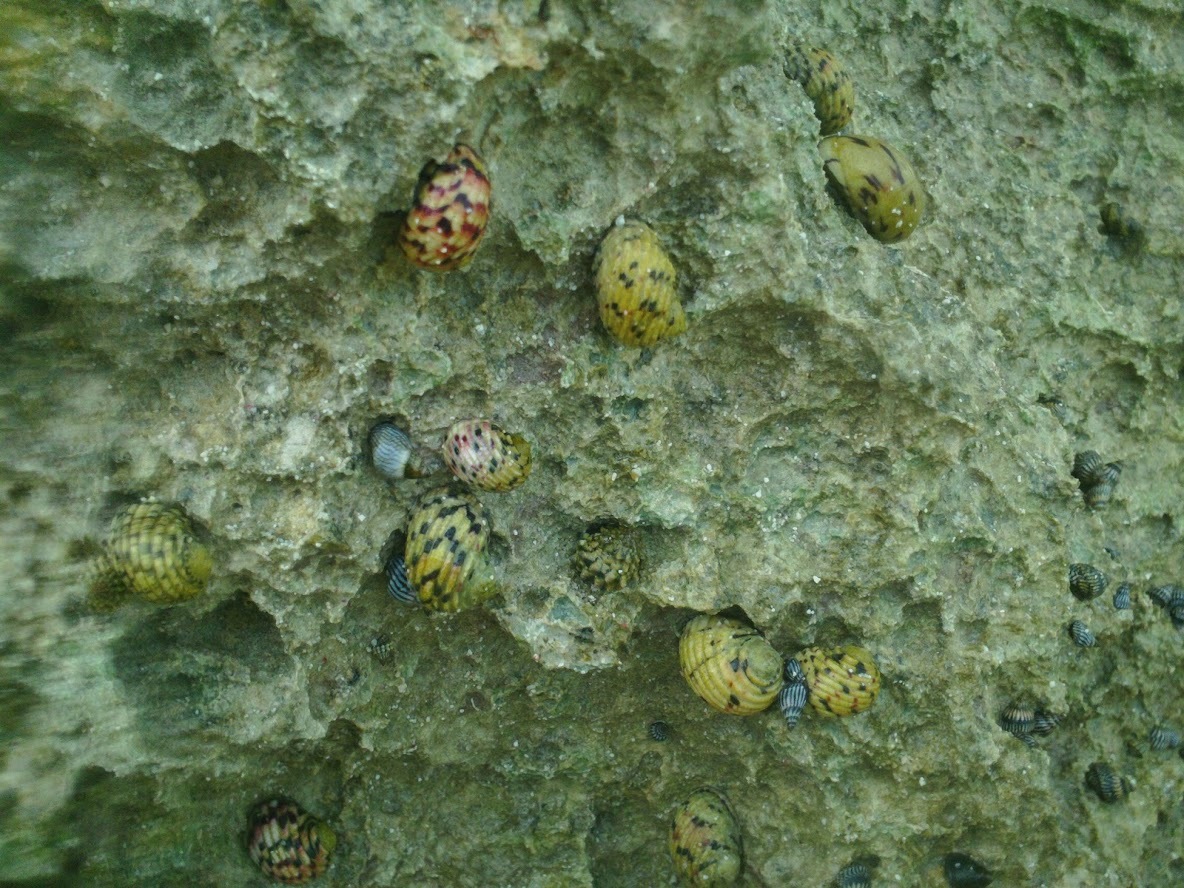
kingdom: Animalia
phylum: Mollusca
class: Gastropoda
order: Cycloneritida
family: Neritidae
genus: Nerita
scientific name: Nerita versicolor
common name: Four-tooth nerite
